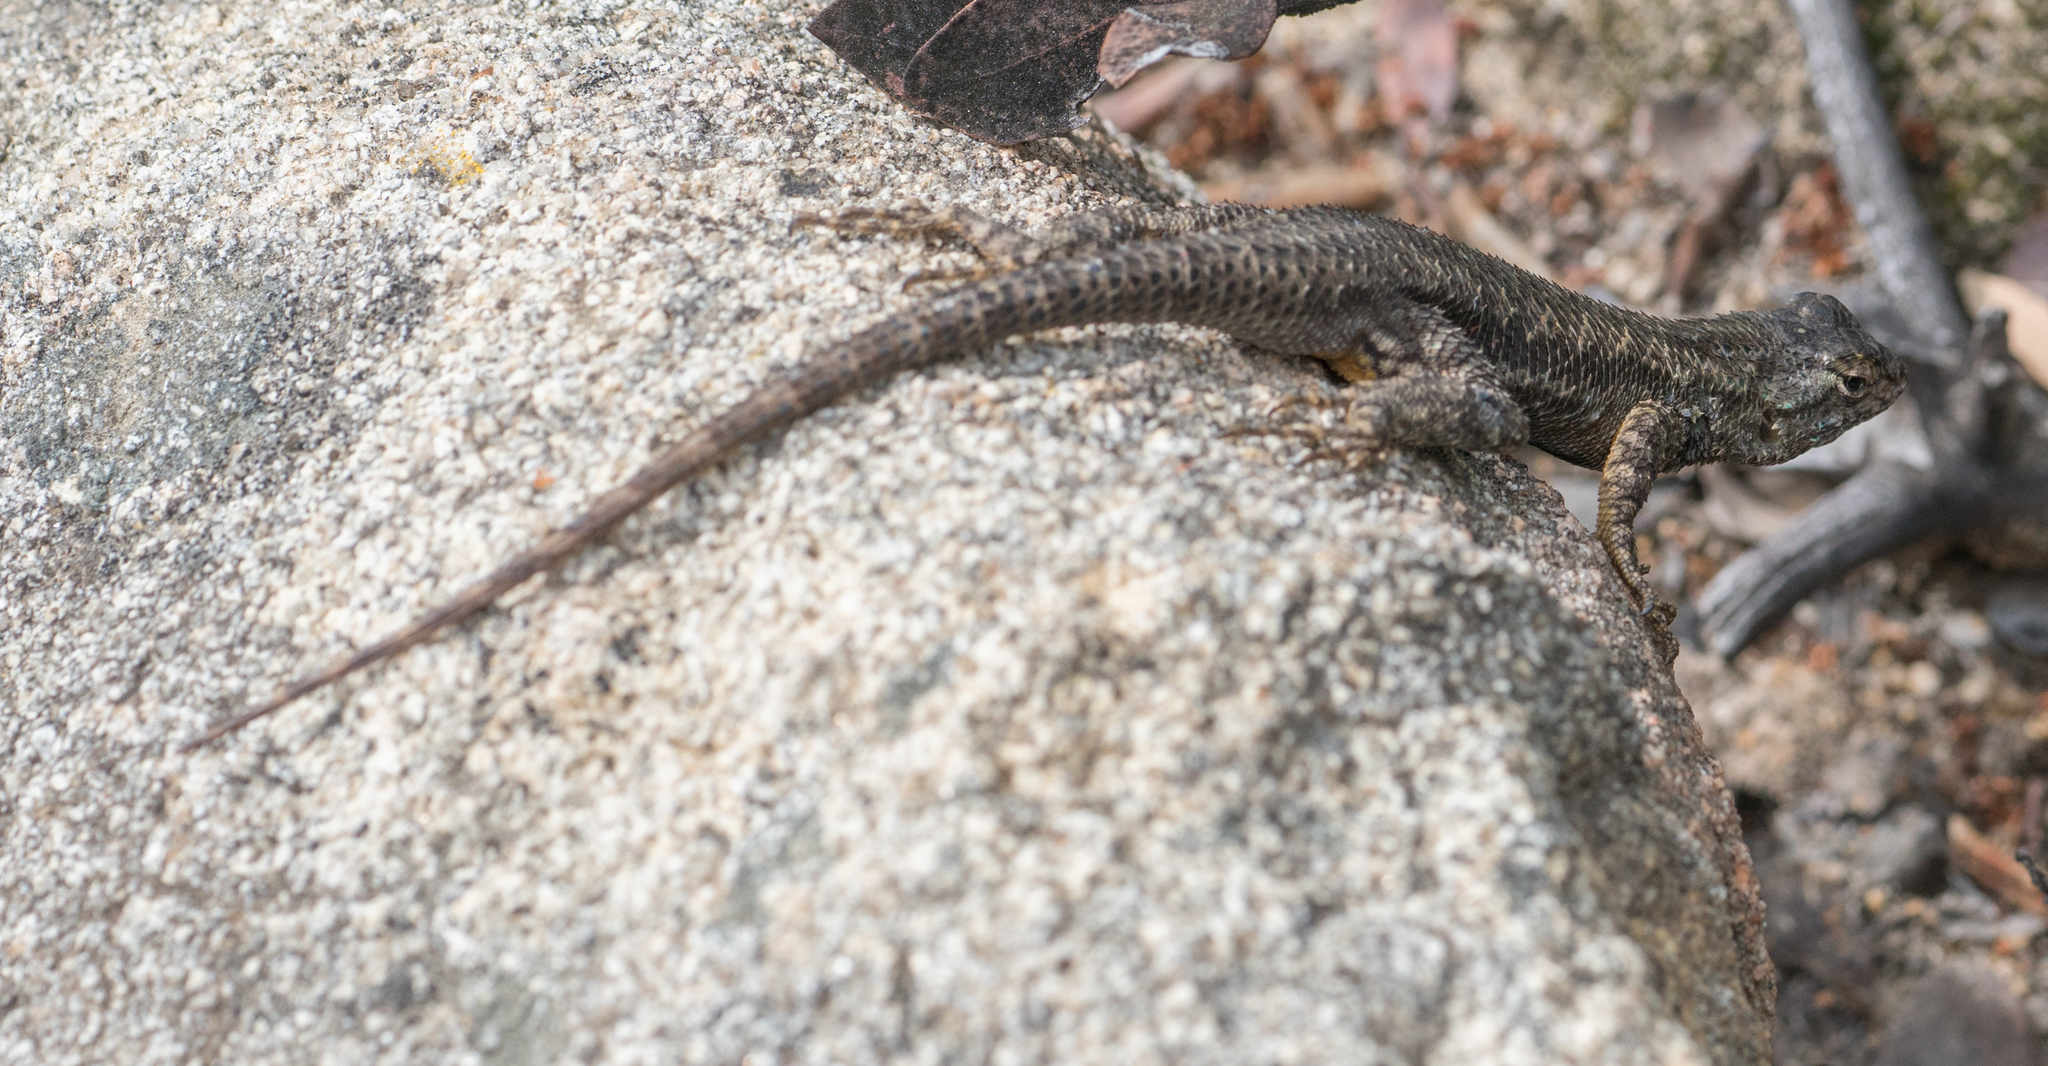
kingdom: Animalia
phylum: Chordata
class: Squamata
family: Phrynosomatidae
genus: Sceloporus
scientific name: Sceloporus occidentalis
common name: Western fence lizard
